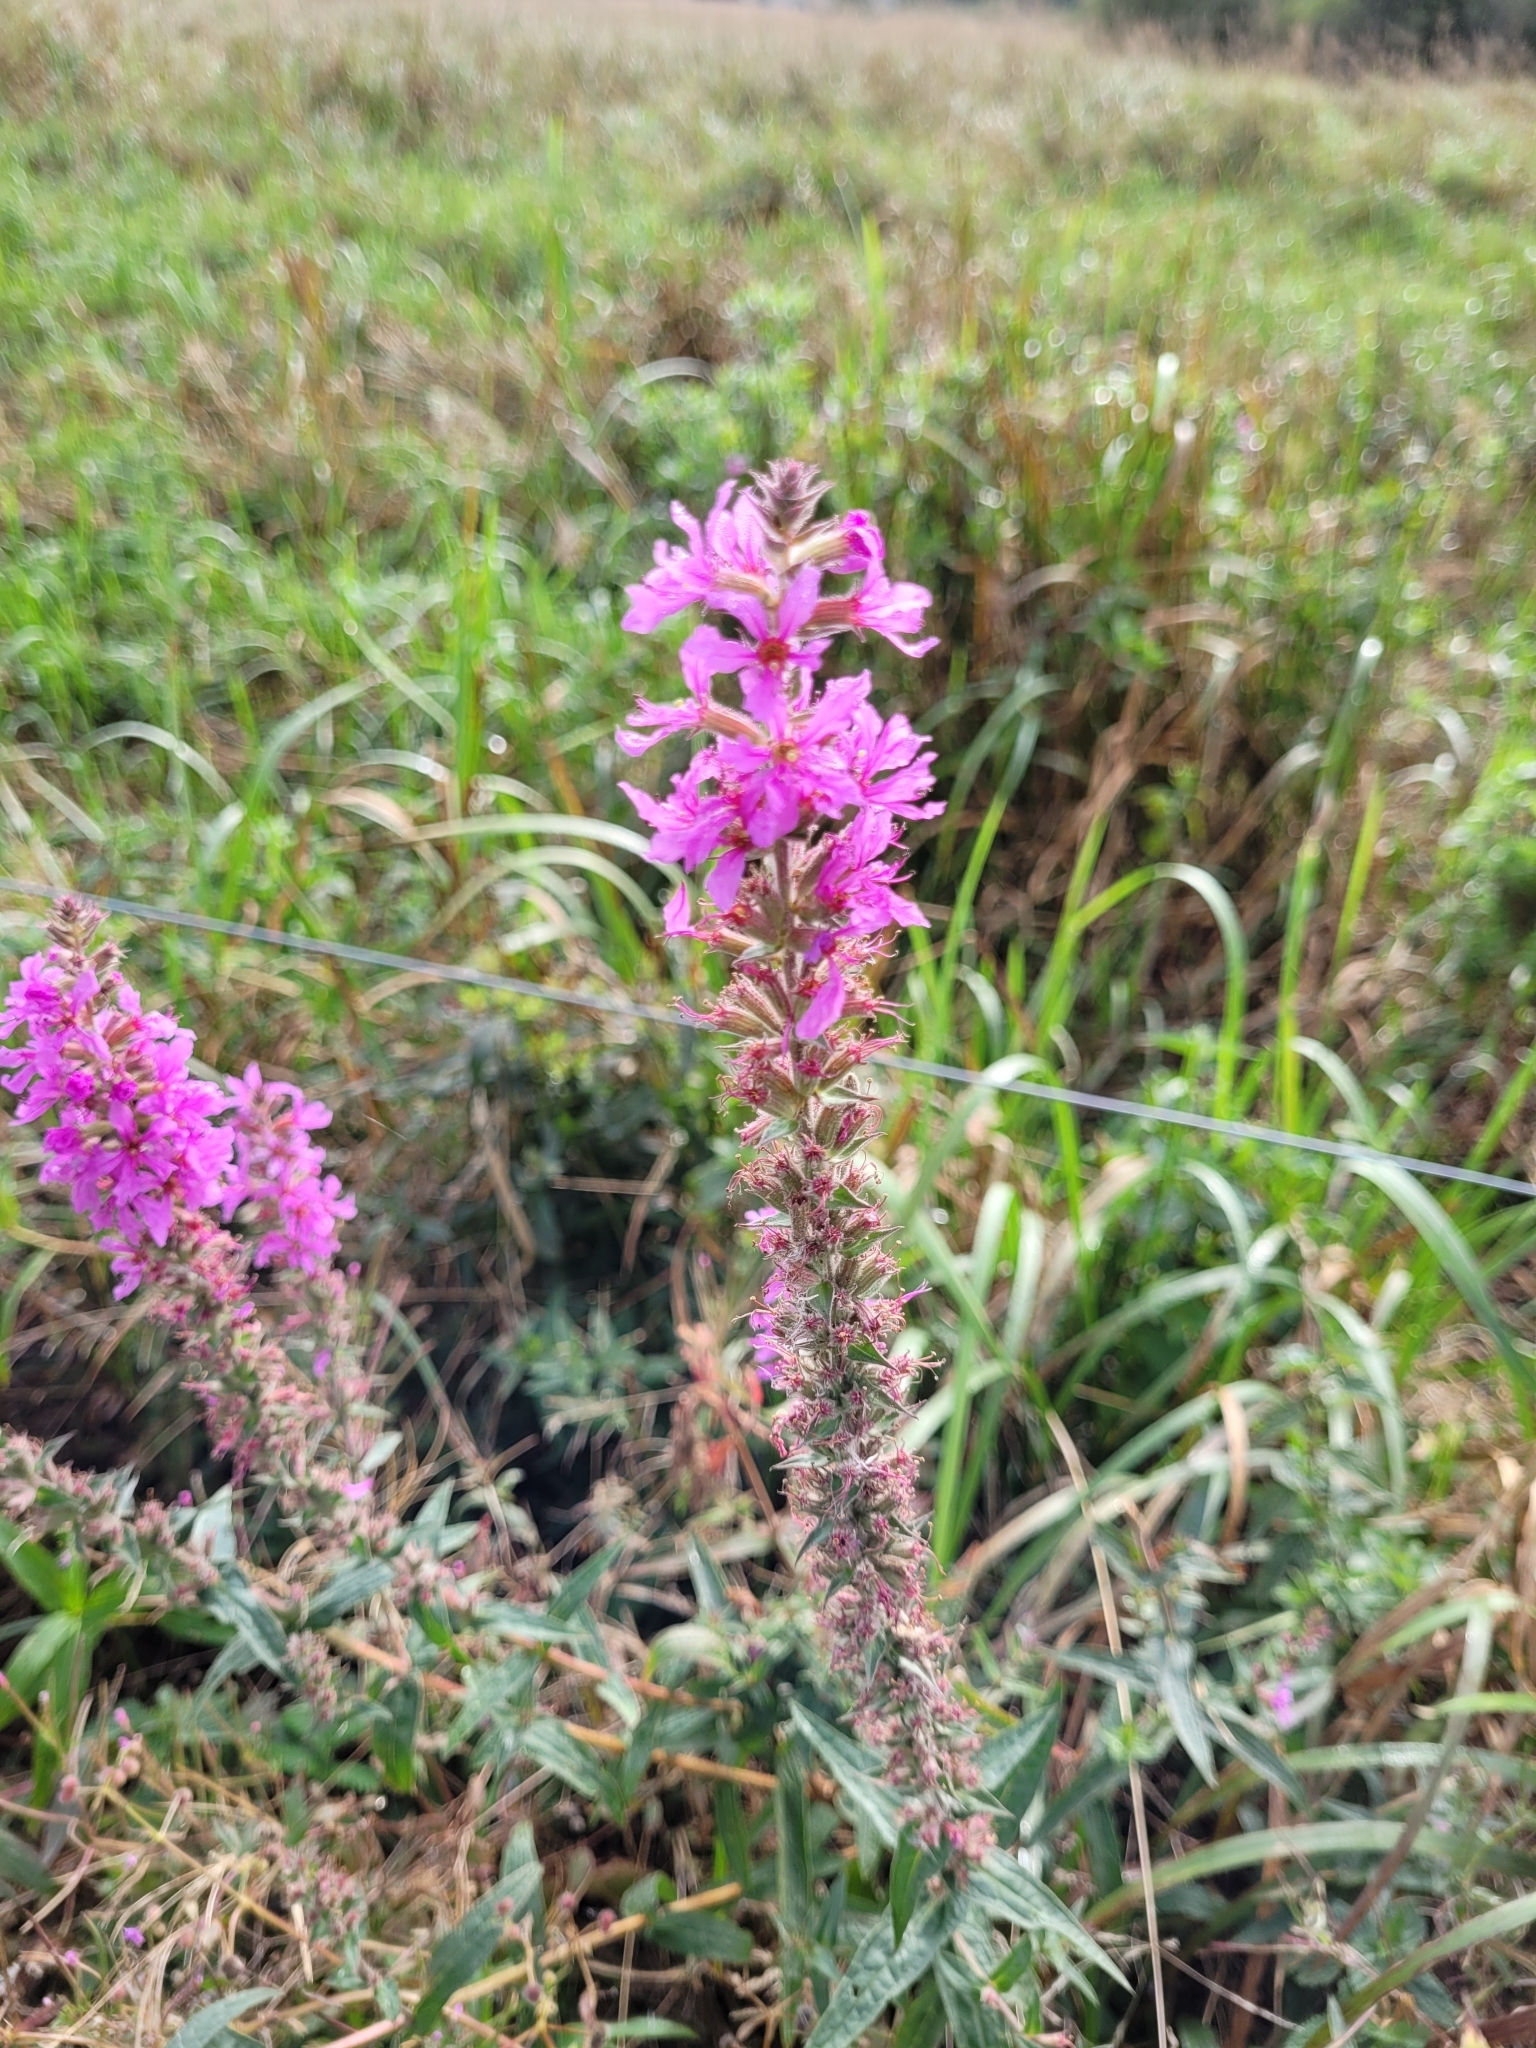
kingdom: Plantae
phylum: Tracheophyta
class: Magnoliopsida
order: Myrtales
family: Lythraceae
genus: Lythrum
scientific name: Lythrum salicaria
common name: Purple loosestrife
